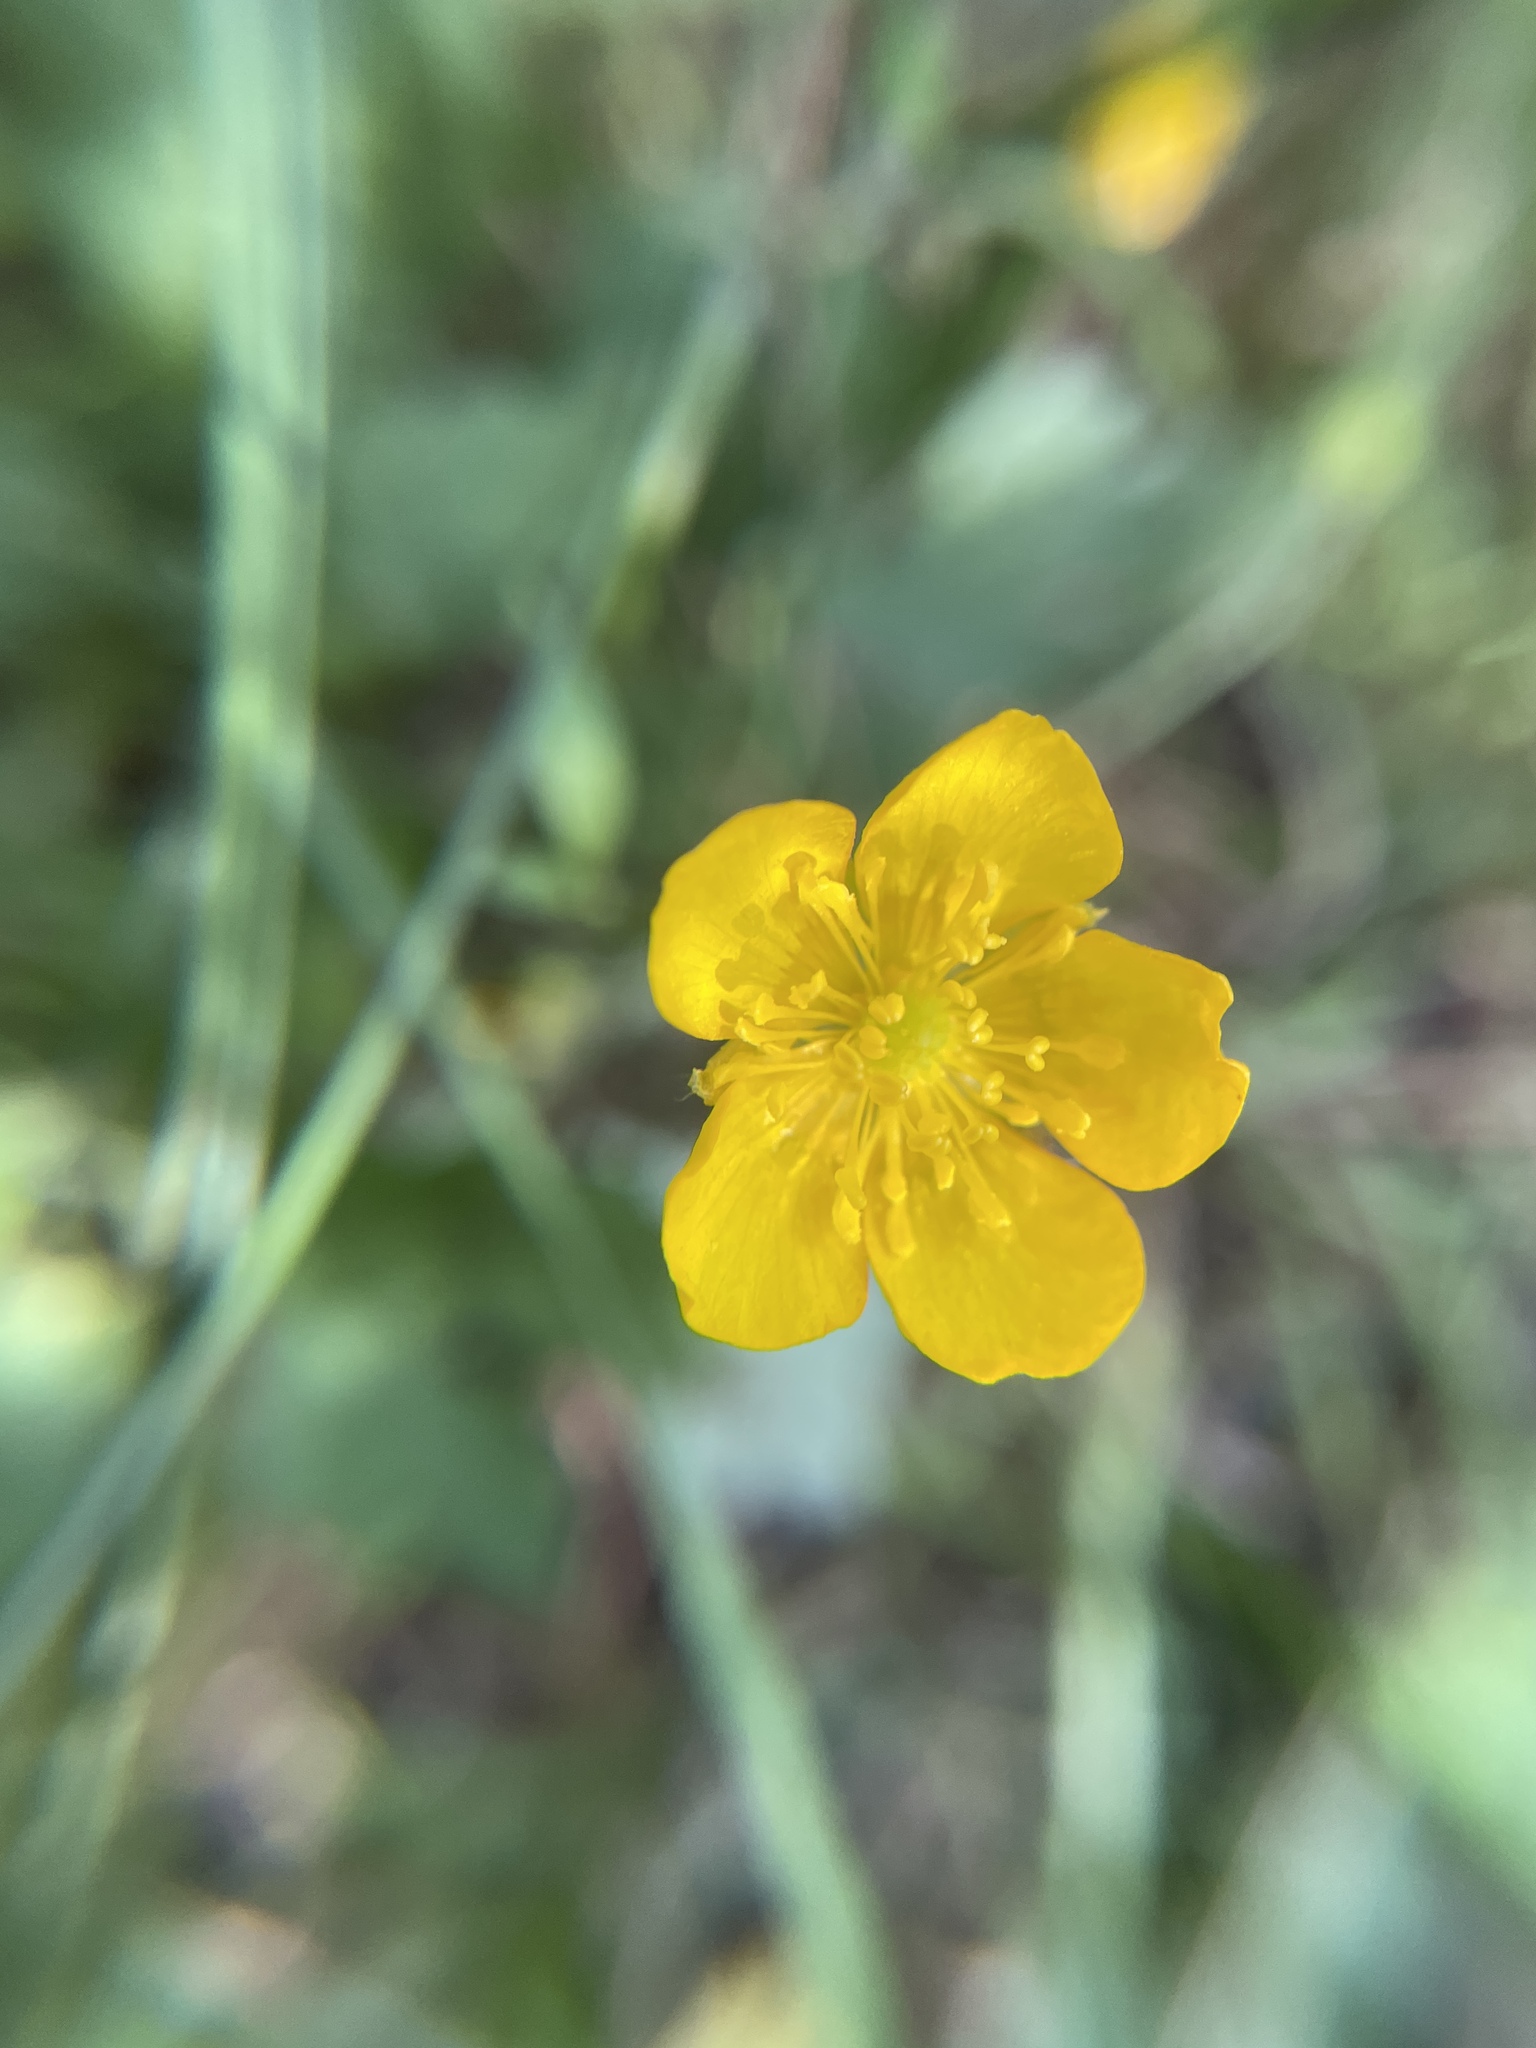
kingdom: Plantae
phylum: Tracheophyta
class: Magnoliopsida
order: Ranunculales
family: Ranunculaceae
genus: Ranunculus
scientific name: Ranunculus repens
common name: Creeping buttercup
